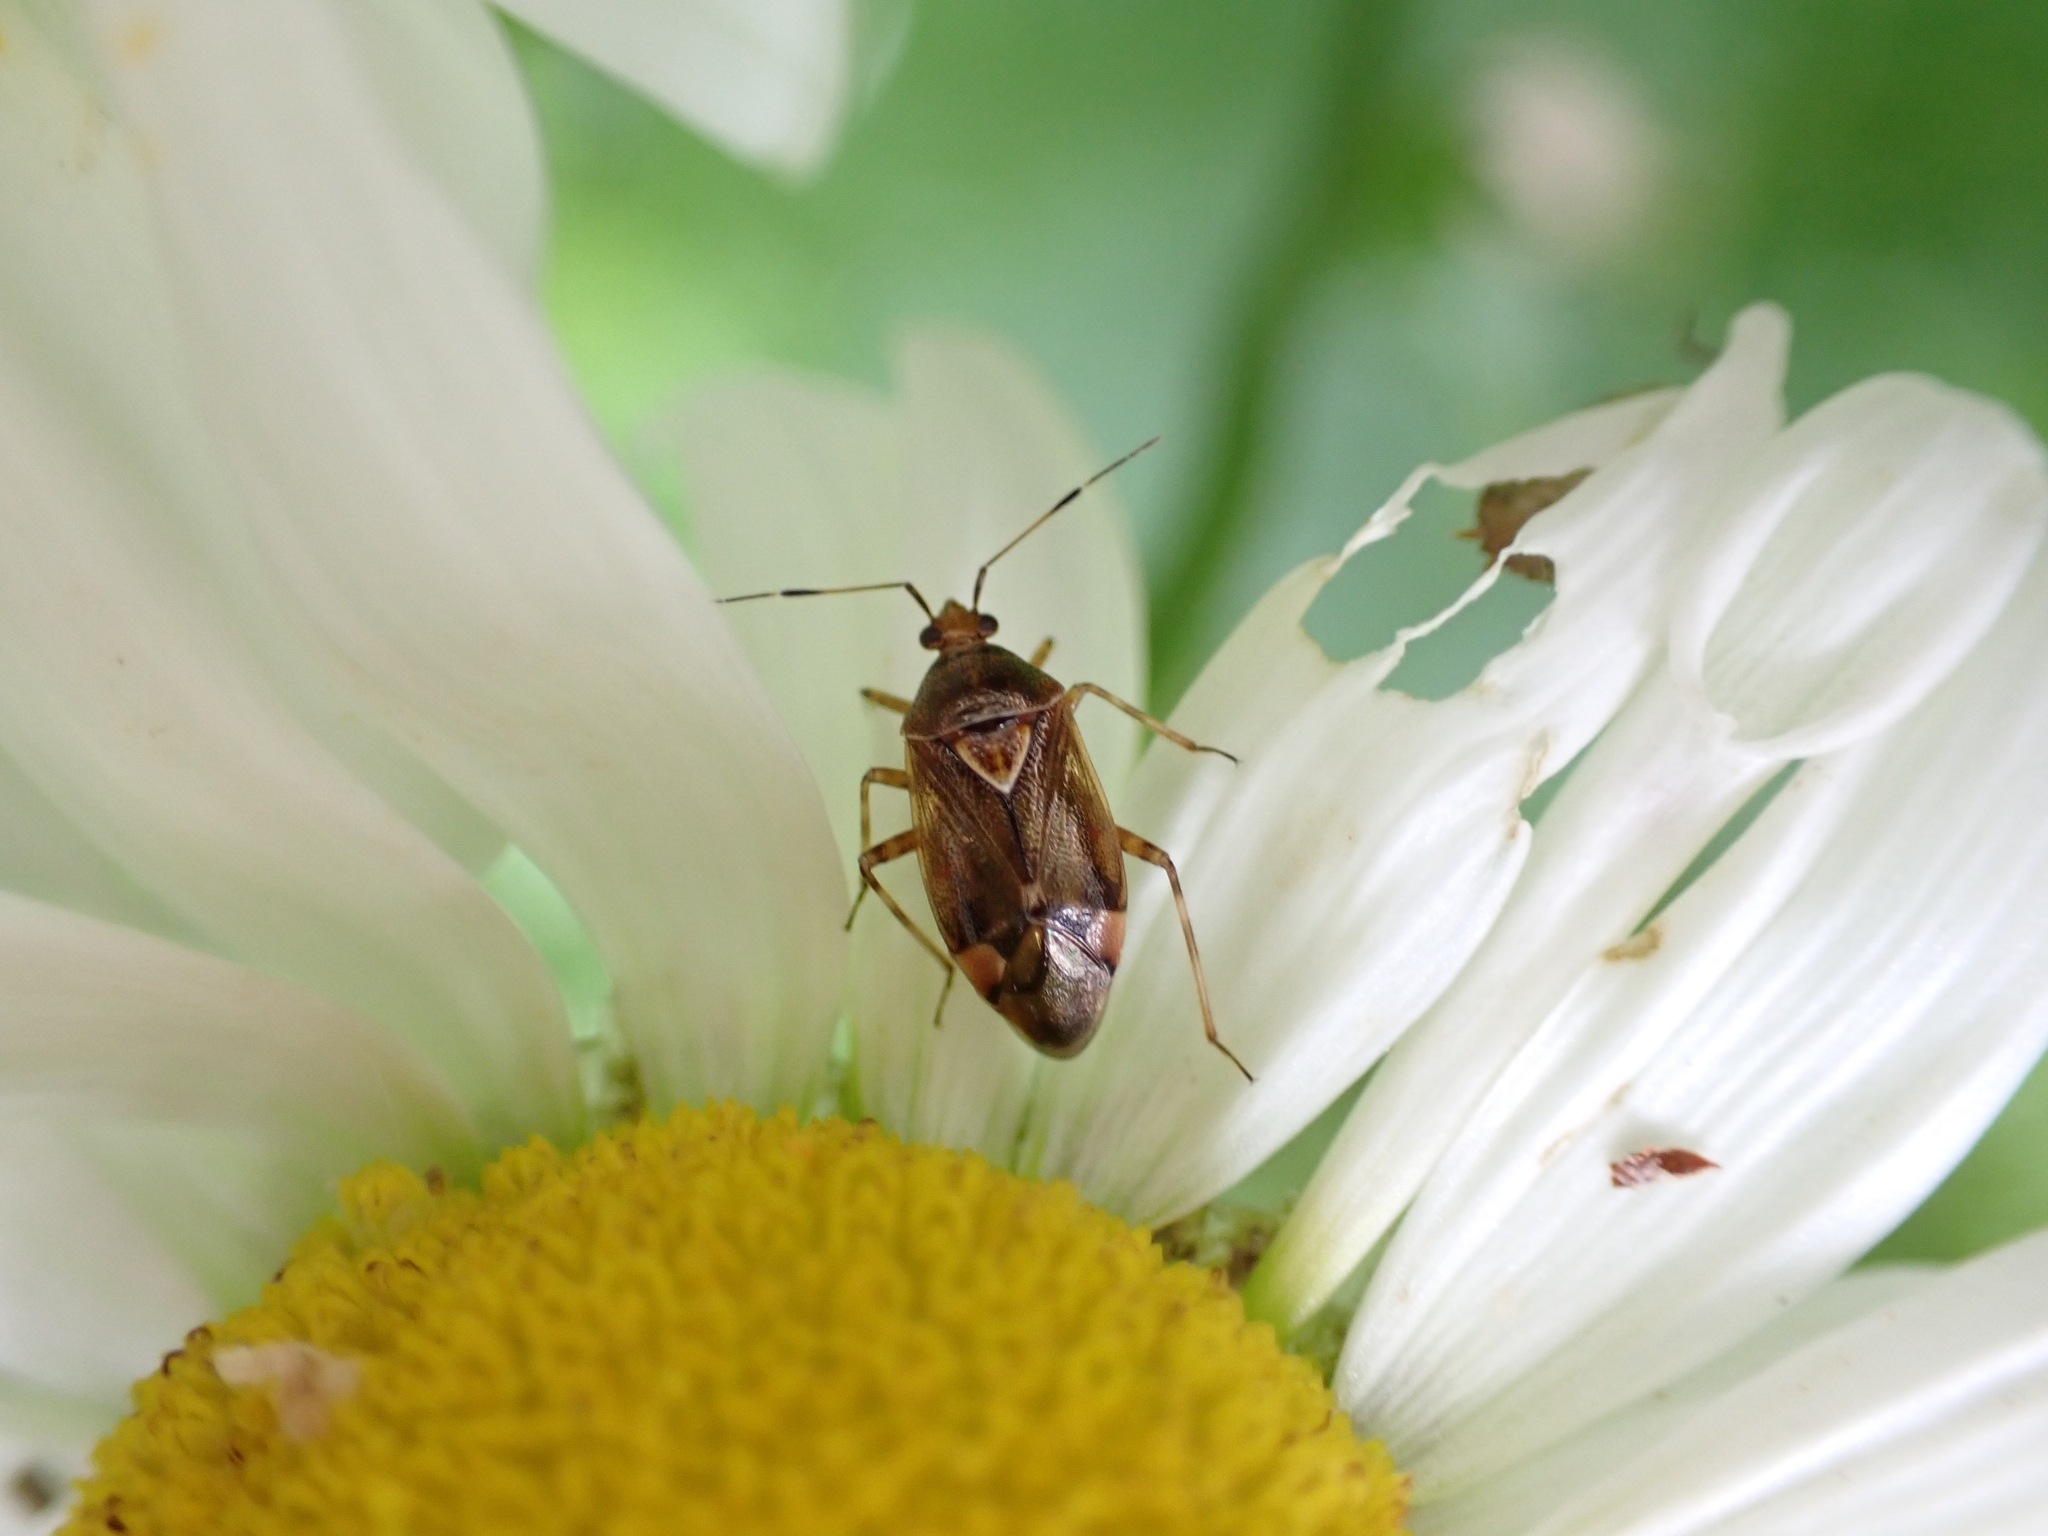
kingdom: Animalia
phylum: Arthropoda
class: Insecta
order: Hemiptera
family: Miridae
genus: Deraeocoris
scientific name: Deraeocoris flavilinea
